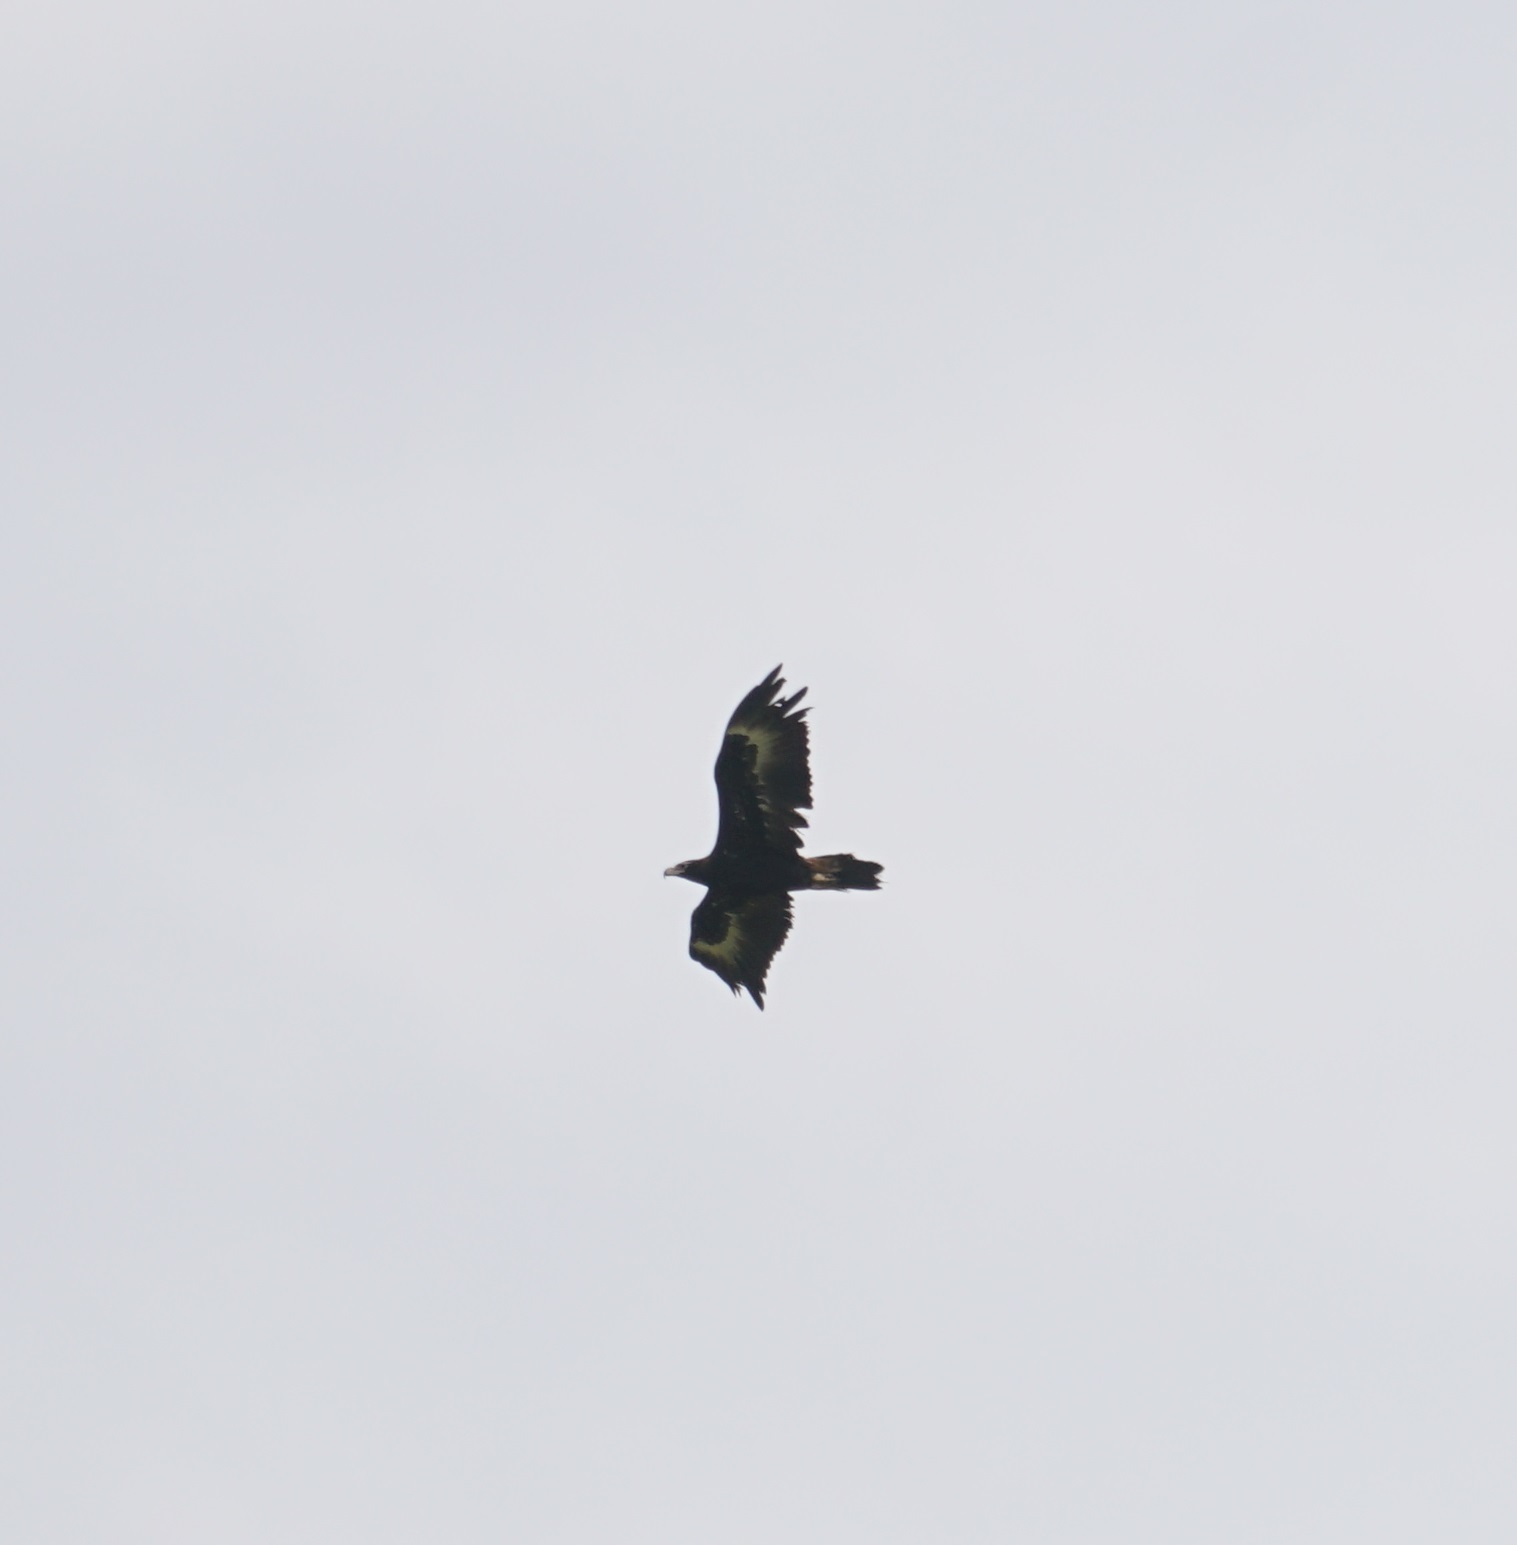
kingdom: Animalia
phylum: Chordata
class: Aves
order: Accipitriformes
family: Accipitridae
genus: Aquila
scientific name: Aquila audax
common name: Wedge-tailed eagle
